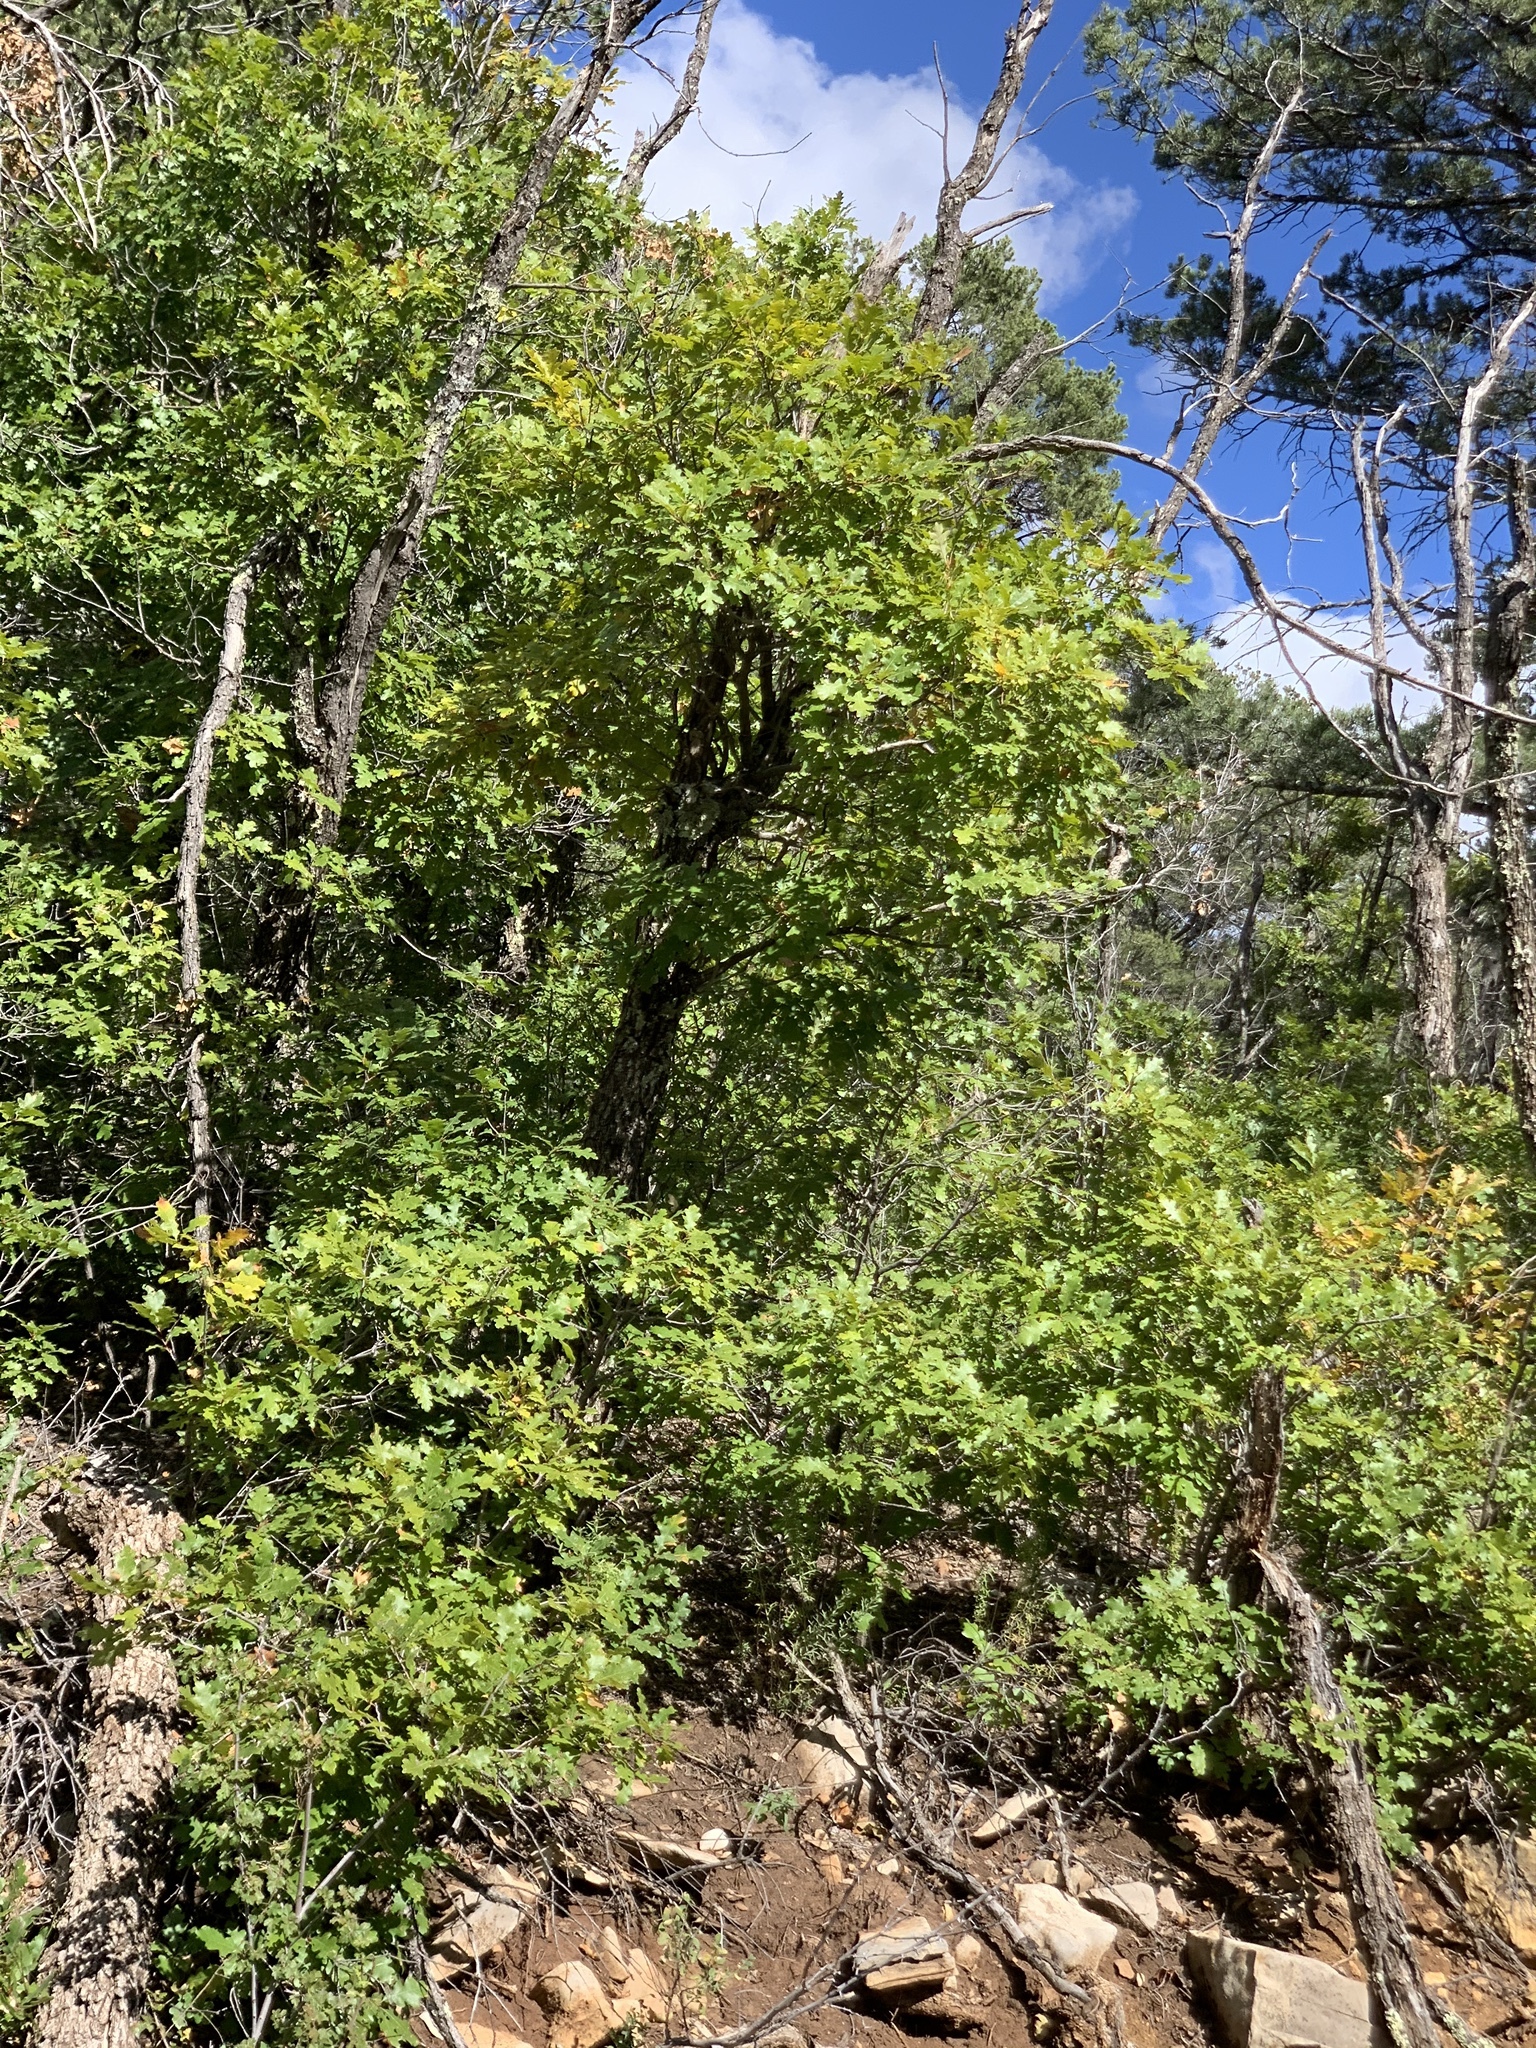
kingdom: Plantae
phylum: Tracheophyta
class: Magnoliopsida
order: Fagales
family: Fagaceae
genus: Quercus
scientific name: Quercus gambelii
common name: Gambel oak
